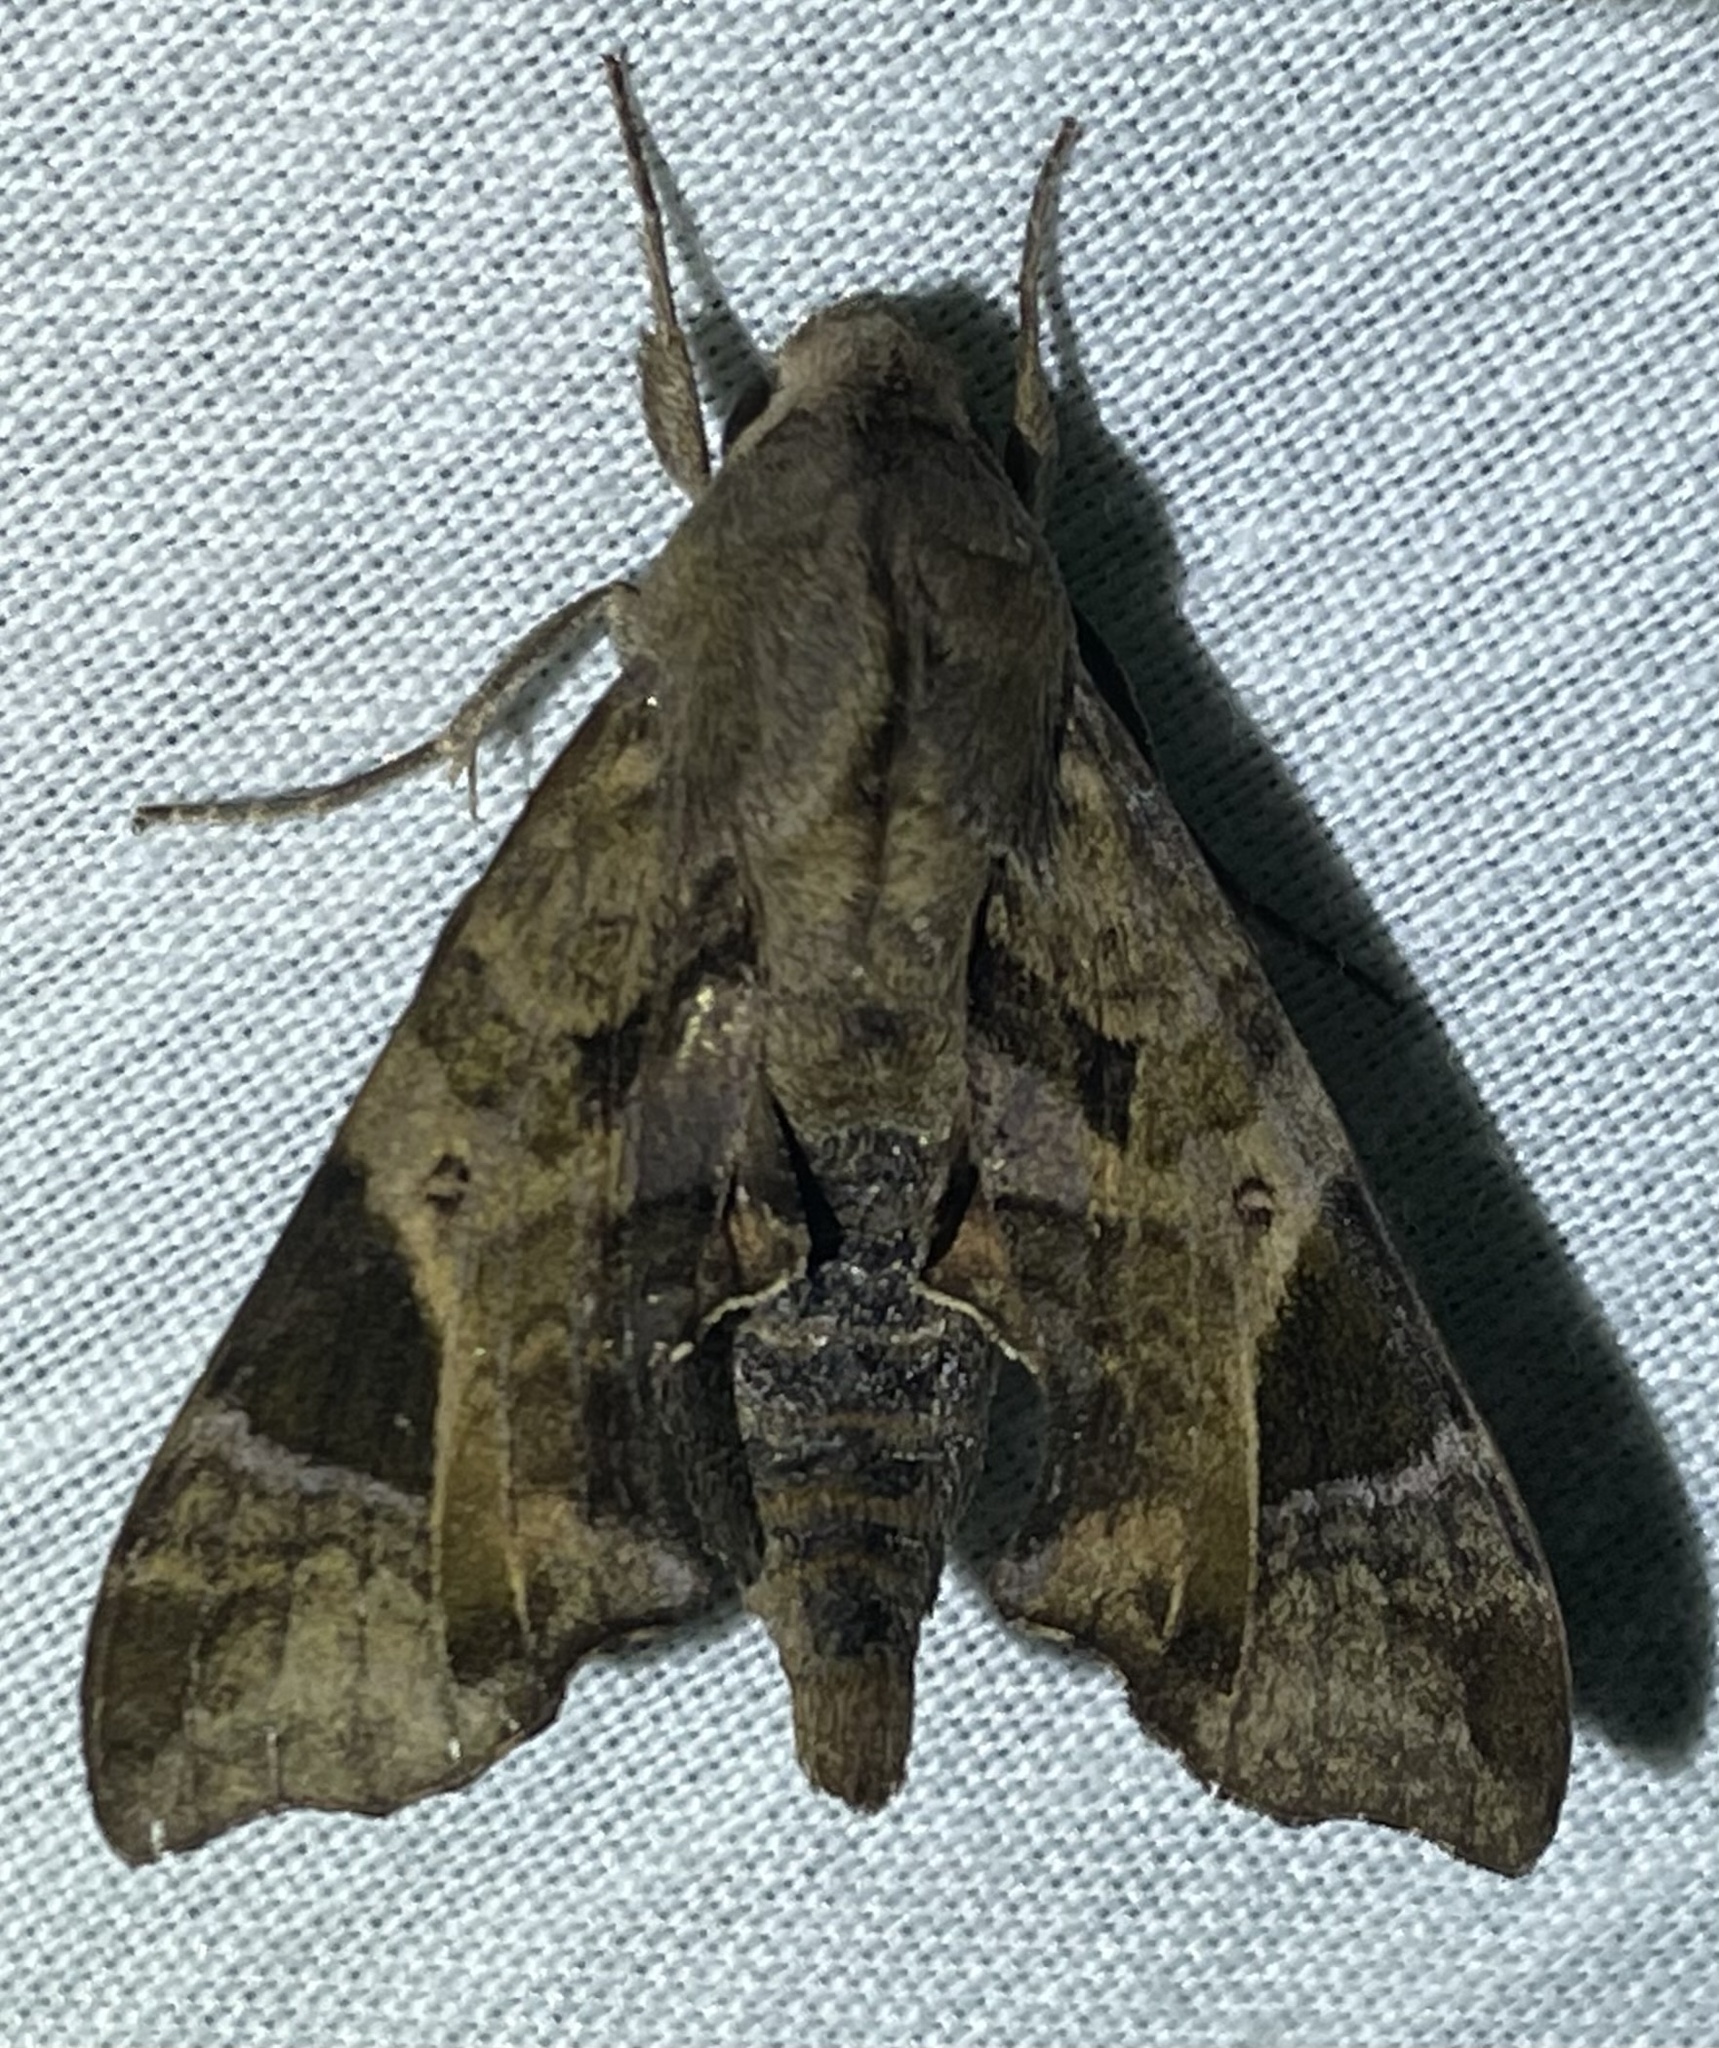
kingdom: Animalia
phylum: Arthropoda
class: Insecta
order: Lepidoptera
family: Sphingidae
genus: Temnora
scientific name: Temnora plagiata
